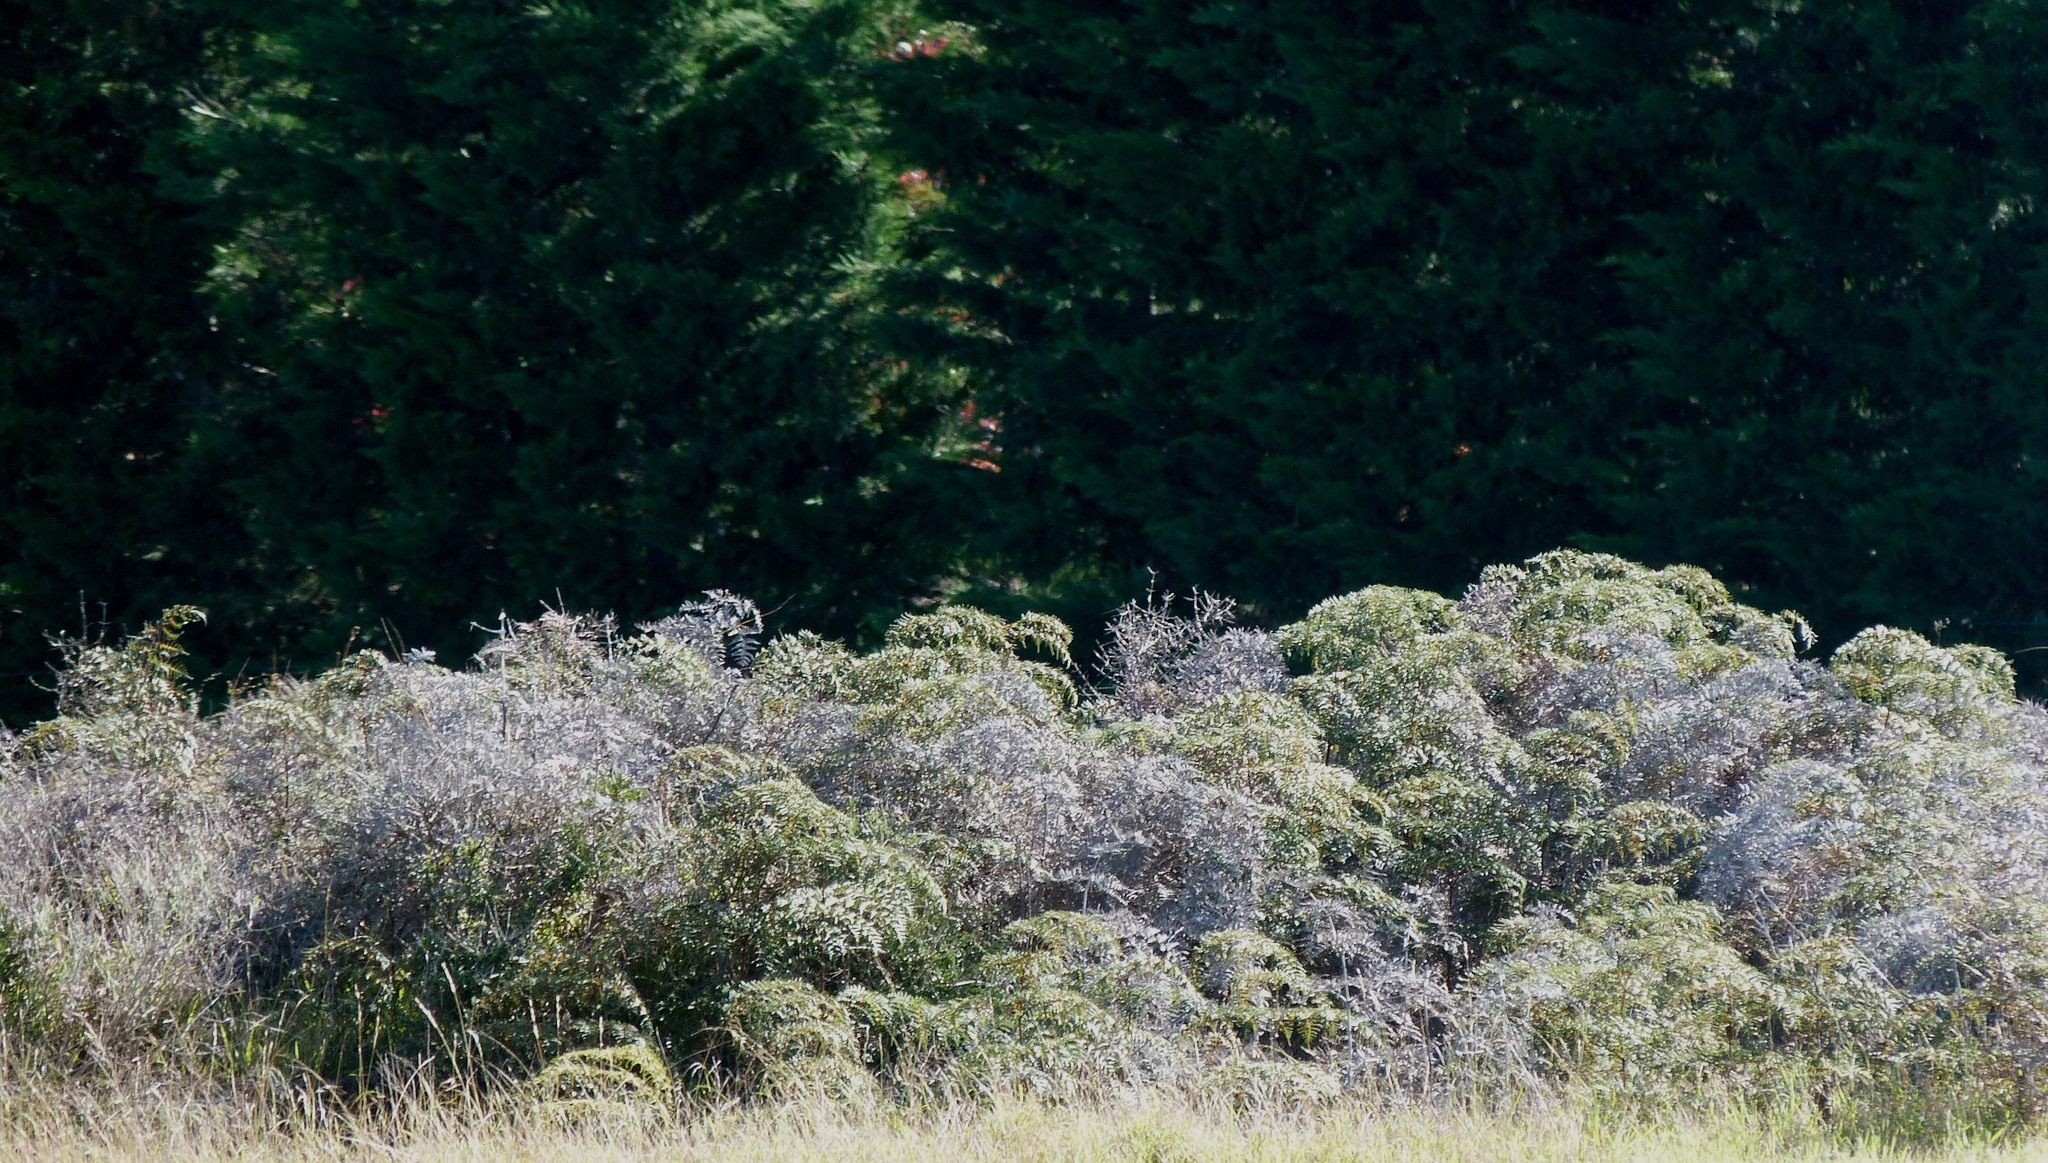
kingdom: Plantae
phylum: Tracheophyta
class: Polypodiopsida
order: Polypodiales
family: Dennstaedtiaceae
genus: Pteridium
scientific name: Pteridium esculentum
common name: Bracken fern
